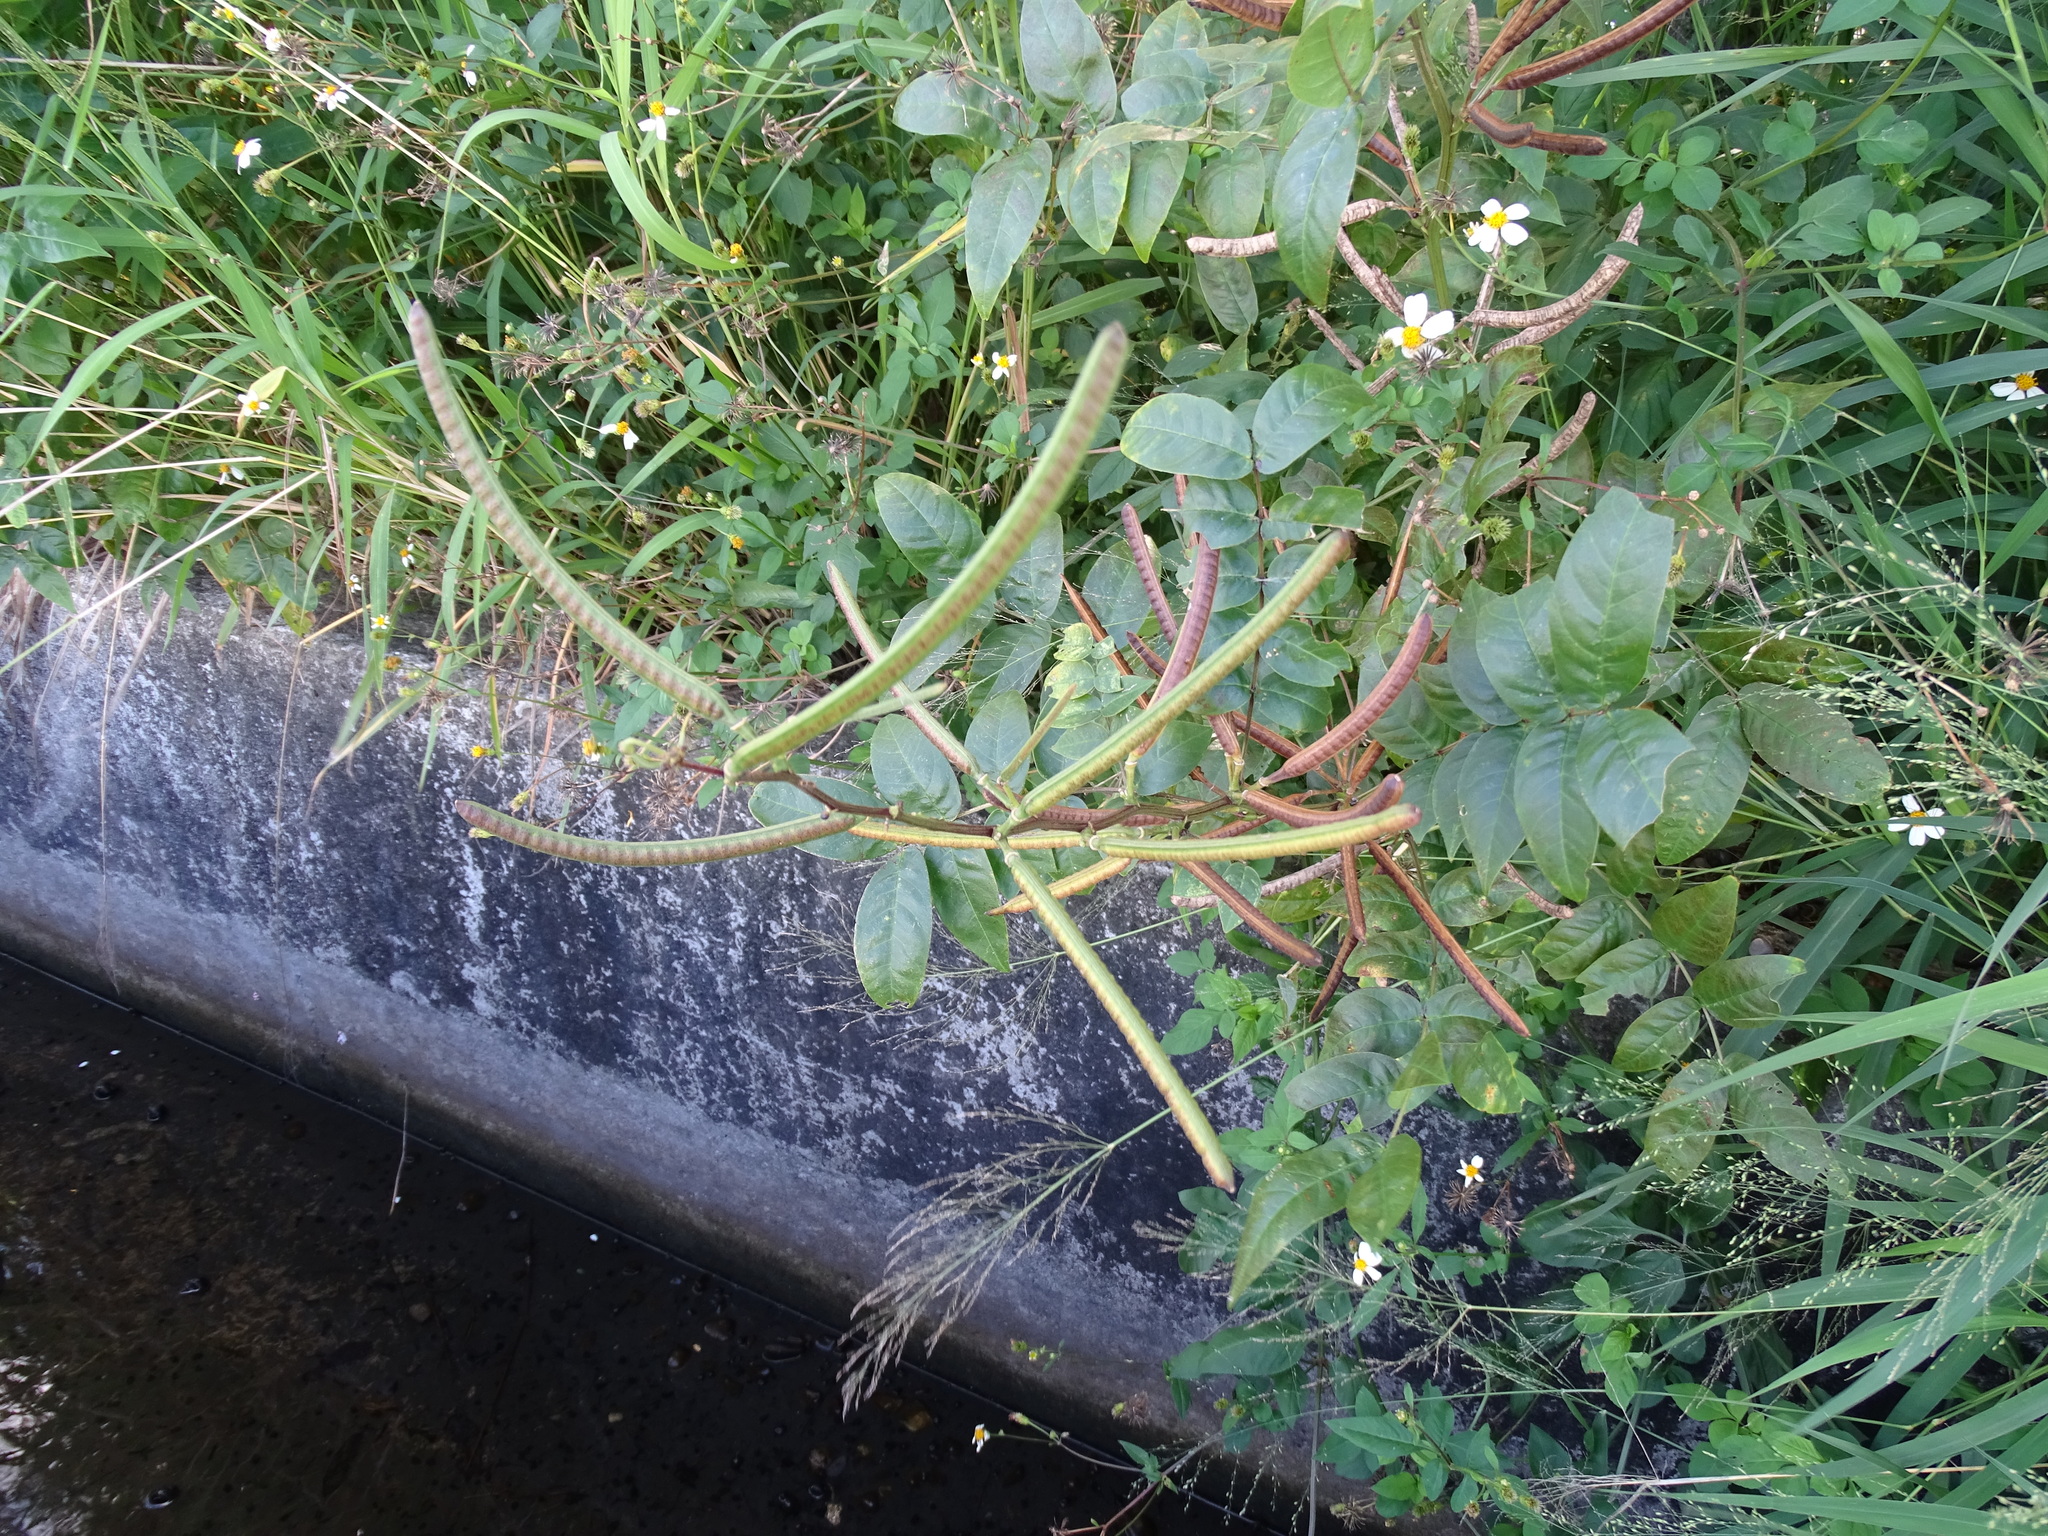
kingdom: Plantae
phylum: Tracheophyta
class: Magnoliopsida
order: Fabales
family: Fabaceae
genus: Senna
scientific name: Senna occidentalis
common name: Septicweed
